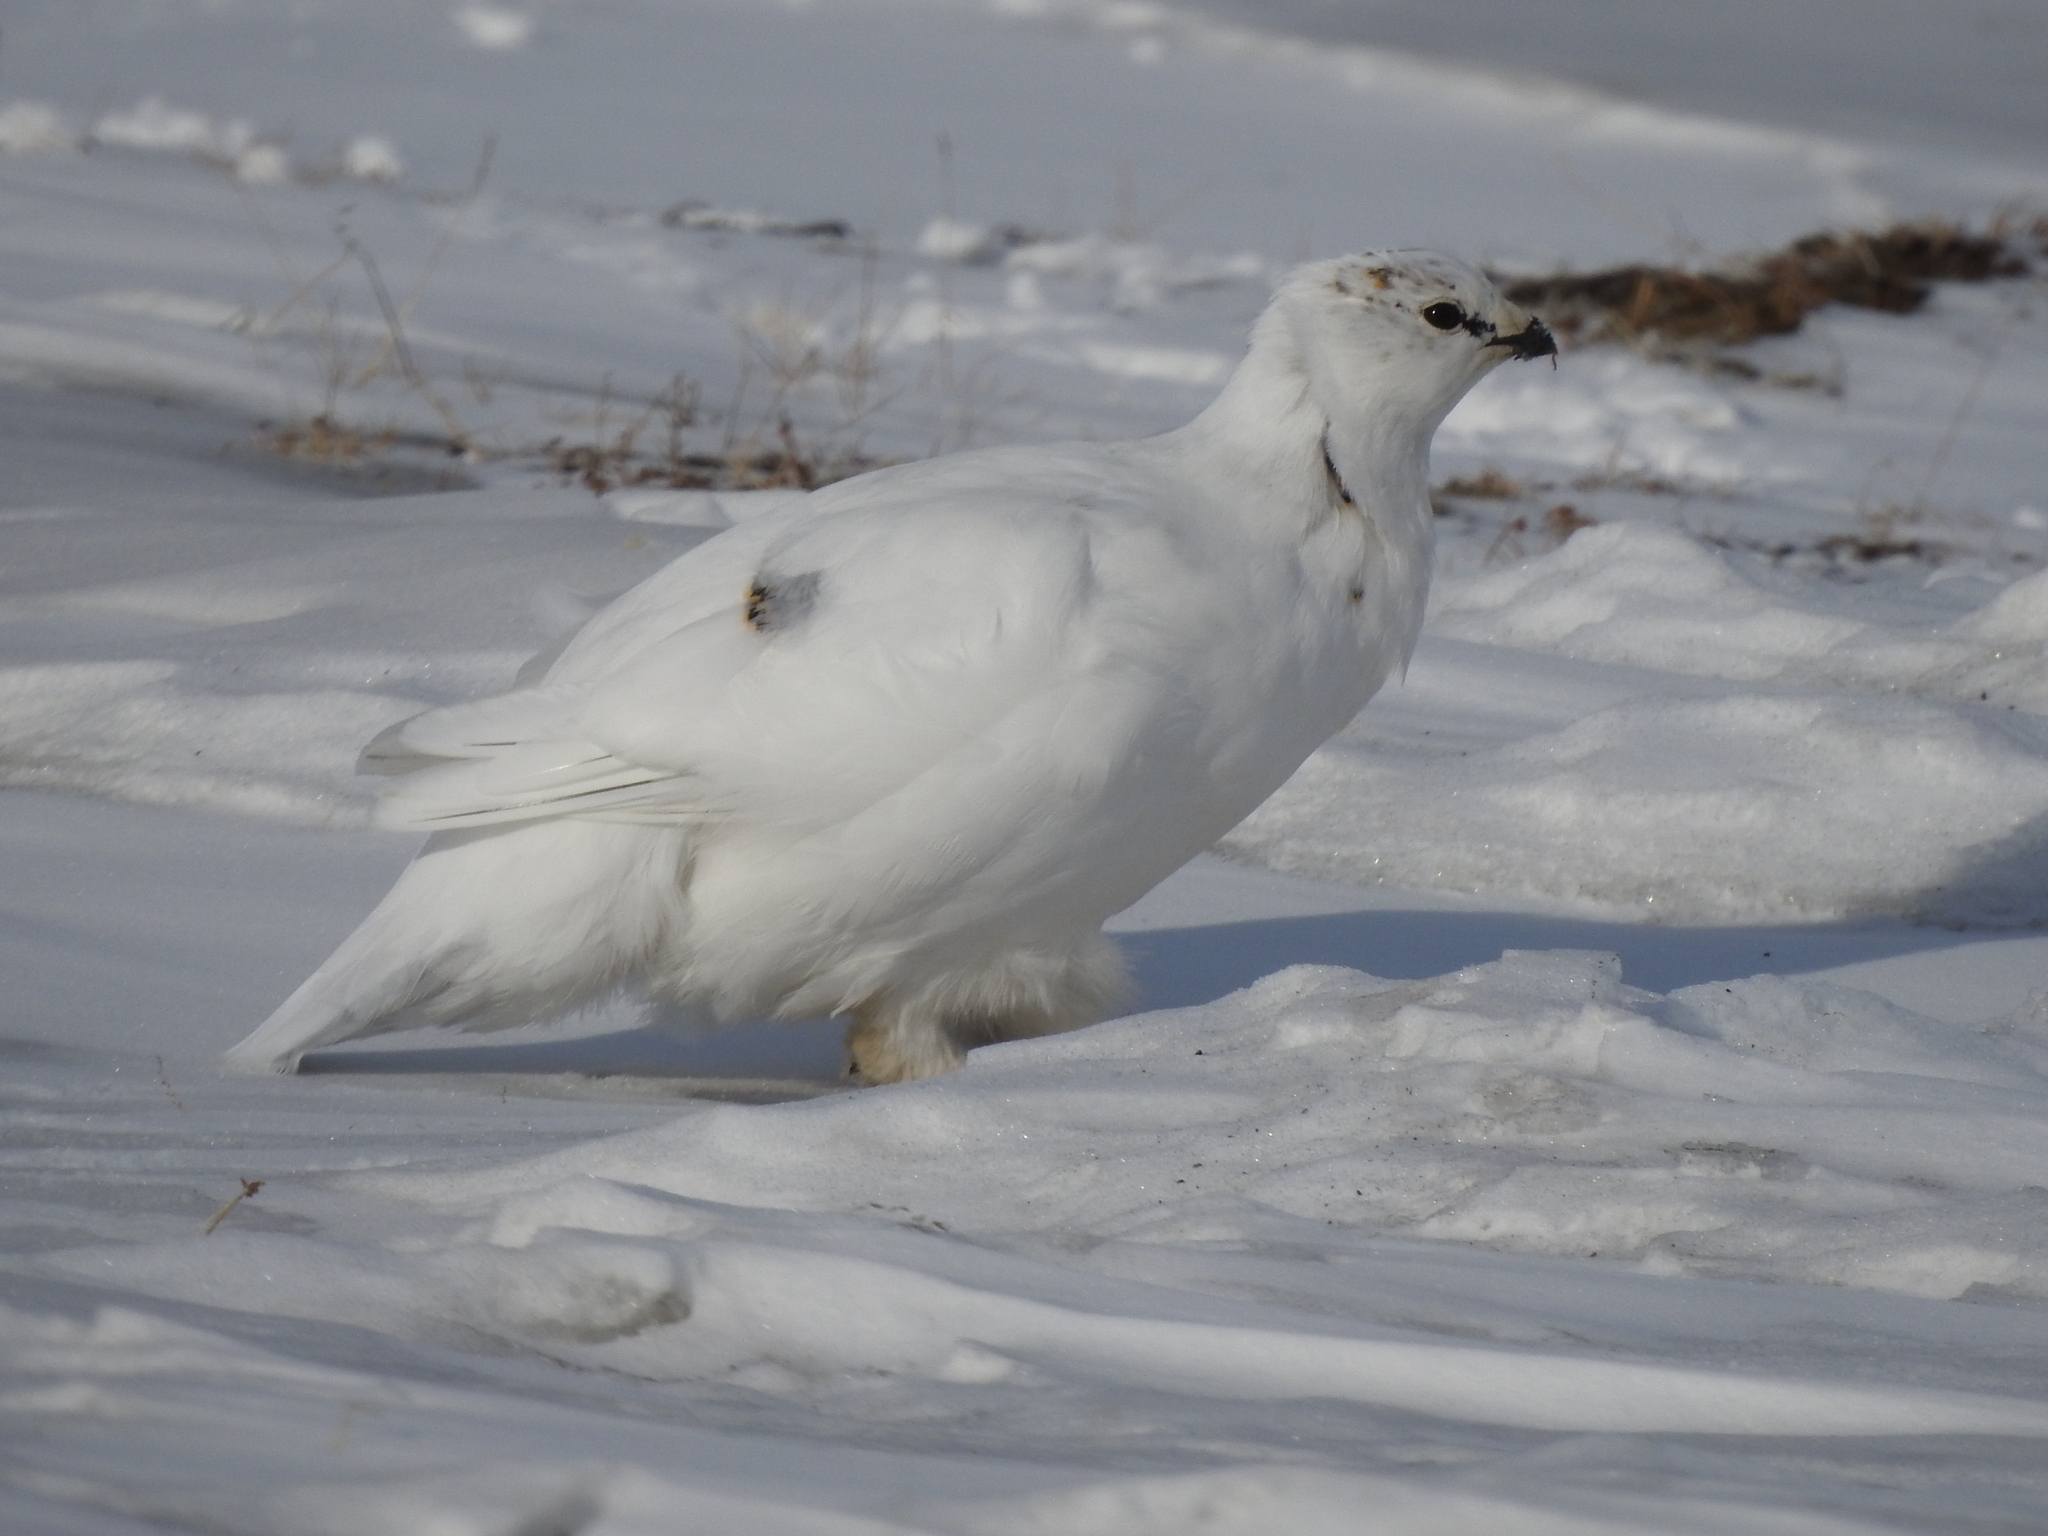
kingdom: Animalia
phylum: Chordata
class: Aves
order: Galliformes
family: Phasianidae
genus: Lagopus
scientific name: Lagopus muta
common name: Rock ptarmigan
